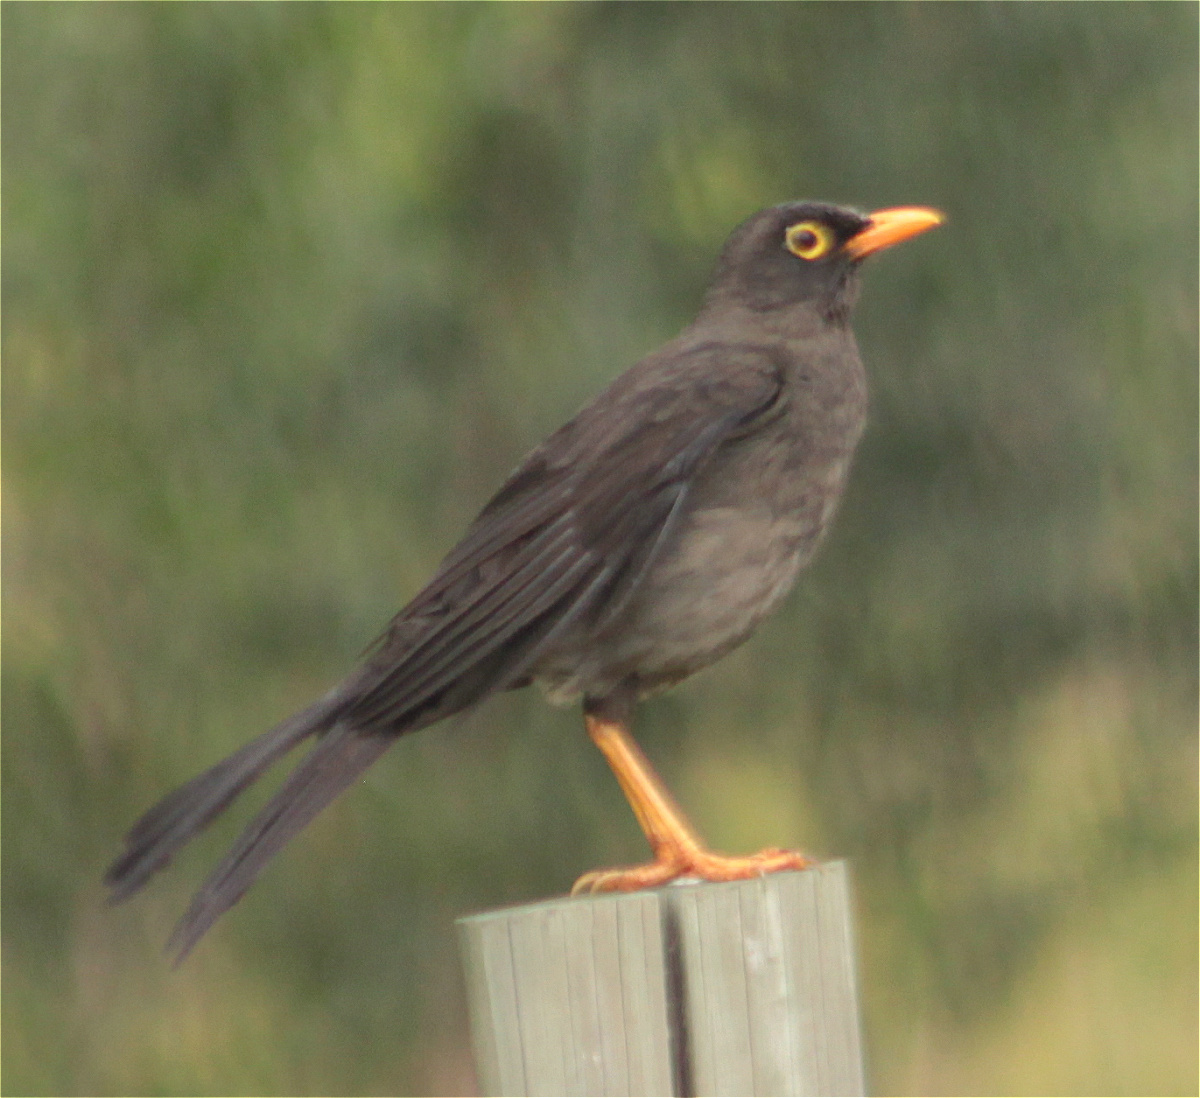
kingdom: Animalia
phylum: Chordata
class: Aves
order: Passeriformes
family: Turdidae
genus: Turdus
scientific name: Turdus fuscater
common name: Great thrush
